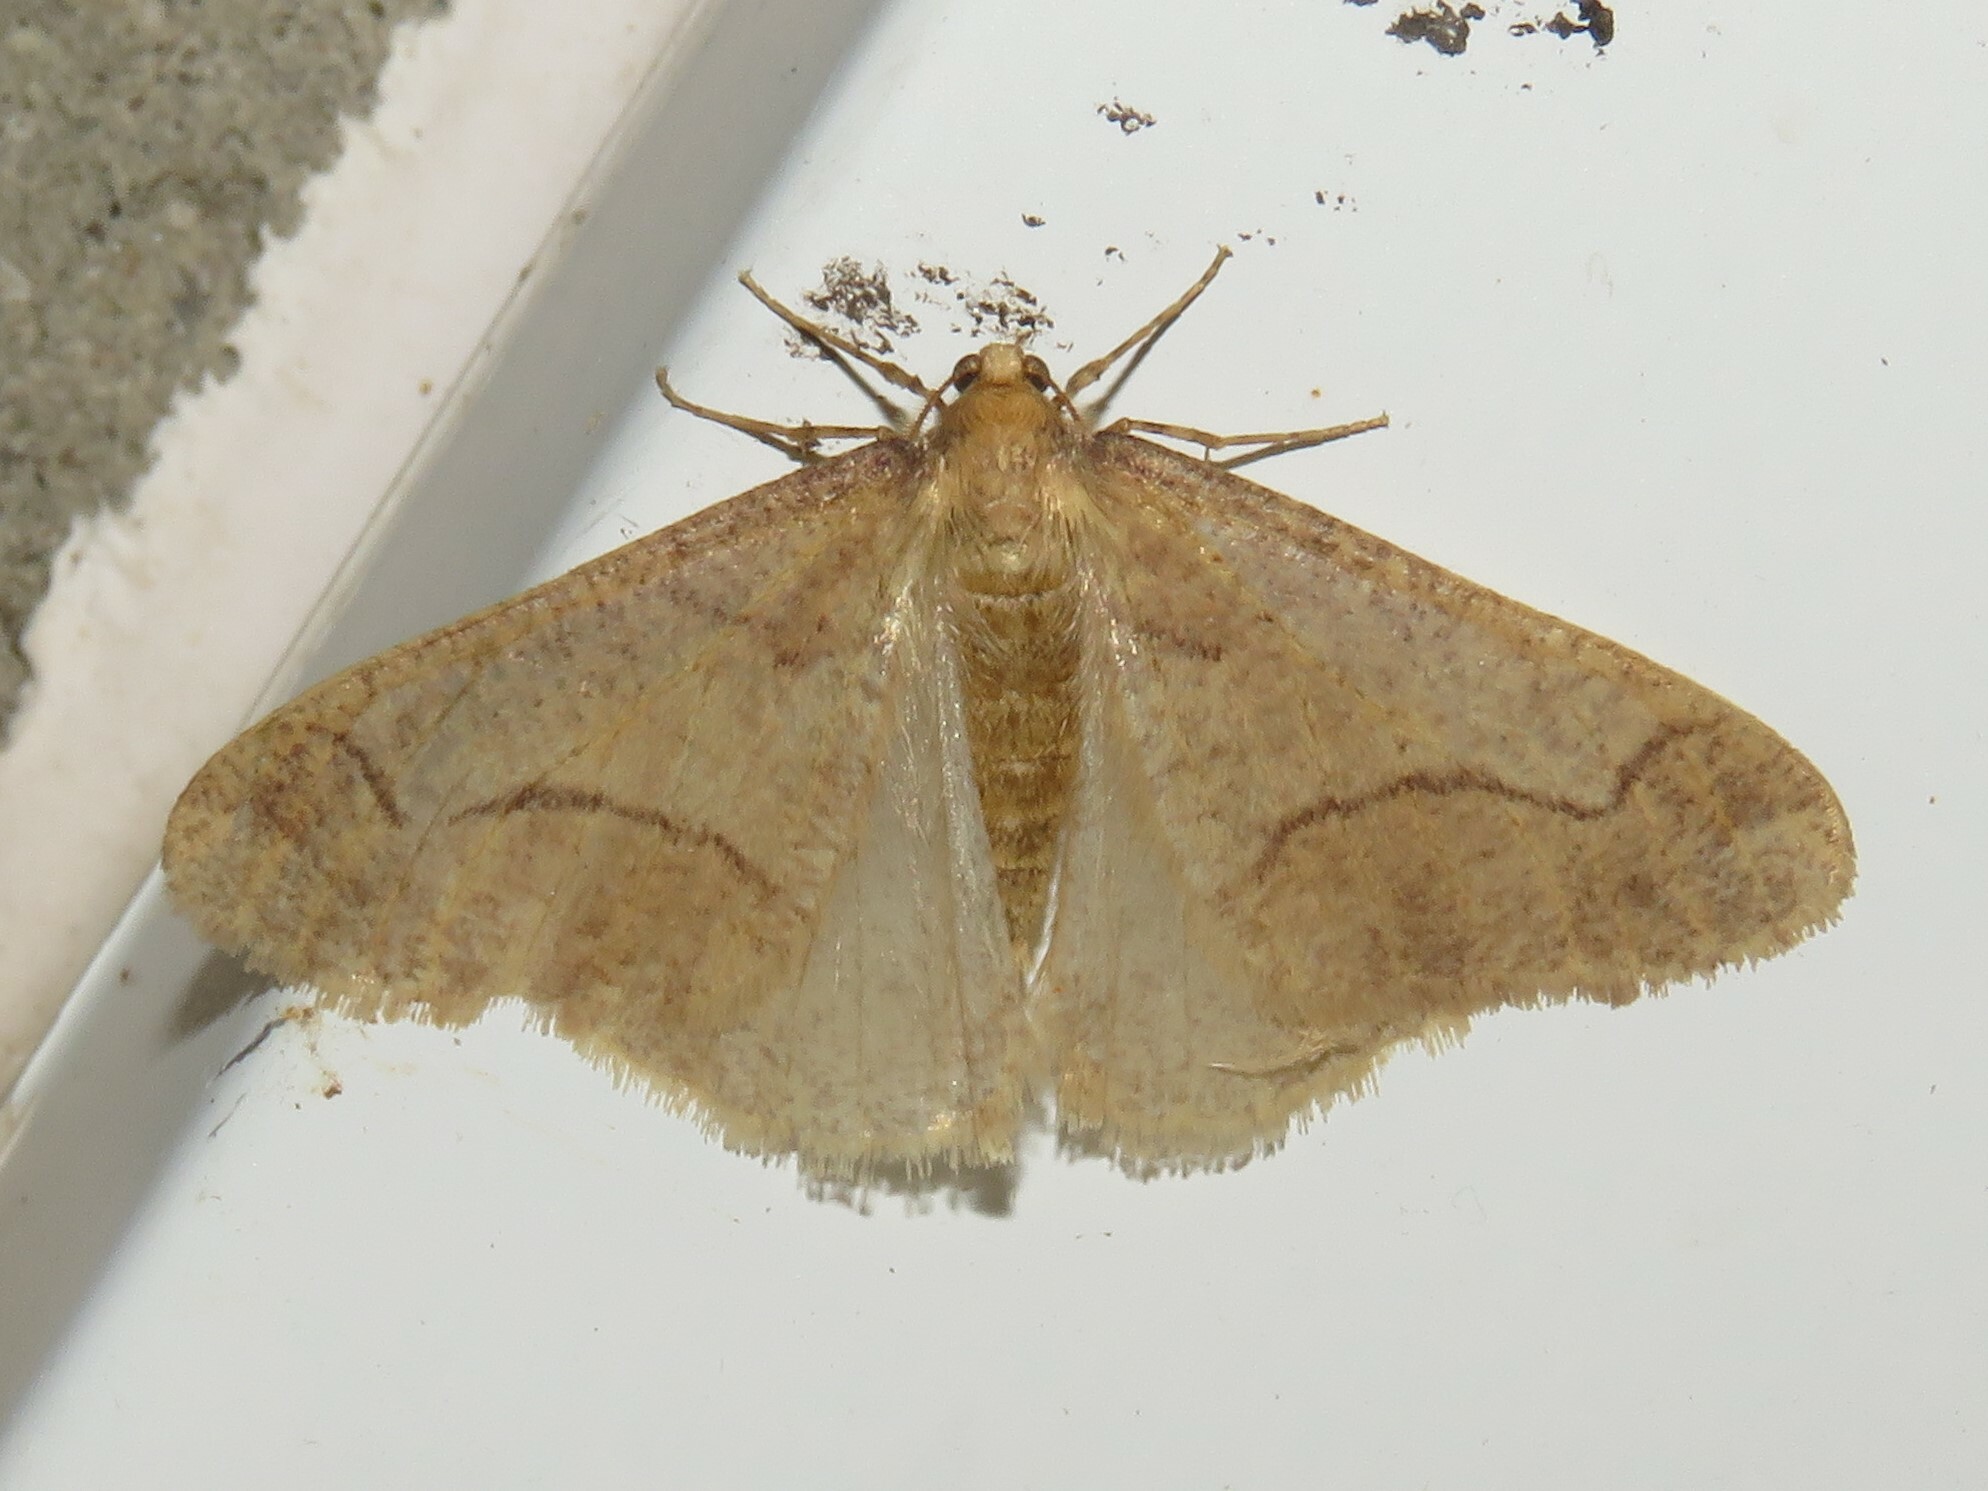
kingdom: Animalia
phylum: Arthropoda
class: Insecta
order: Lepidoptera
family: Geometridae
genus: Erannis
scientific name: Erannis tiliaria
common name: Linden looper
